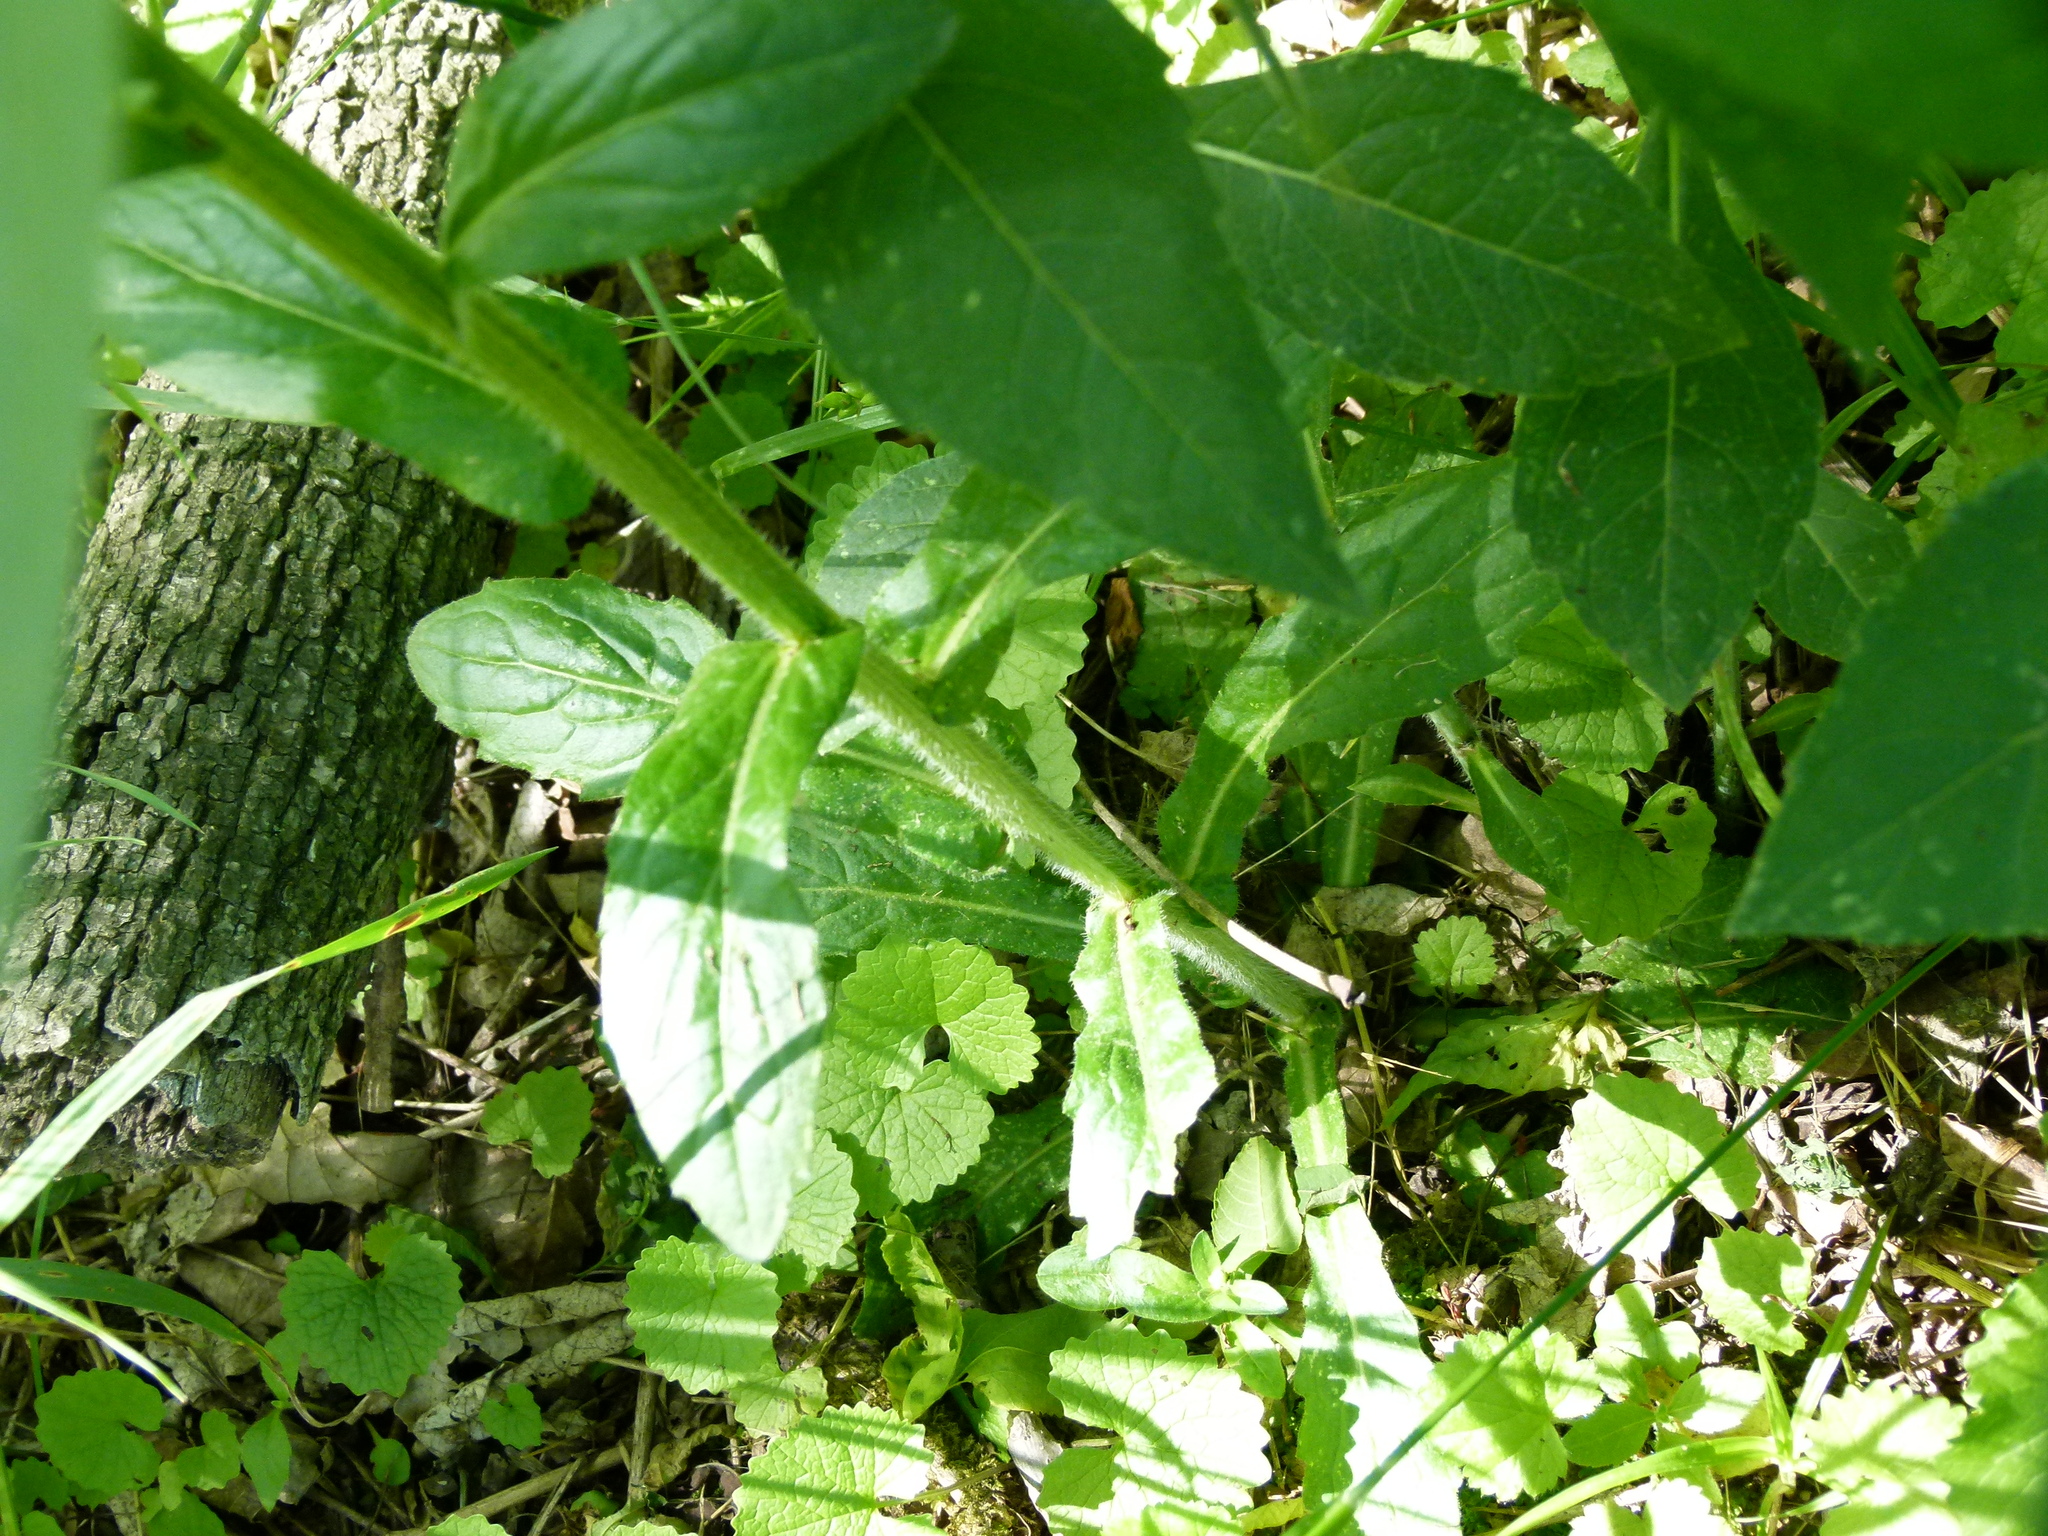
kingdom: Plantae
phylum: Tracheophyta
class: Magnoliopsida
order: Asterales
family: Asteraceae
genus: Erigeron
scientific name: Erigeron philadelphicus
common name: Robin's-plantain
